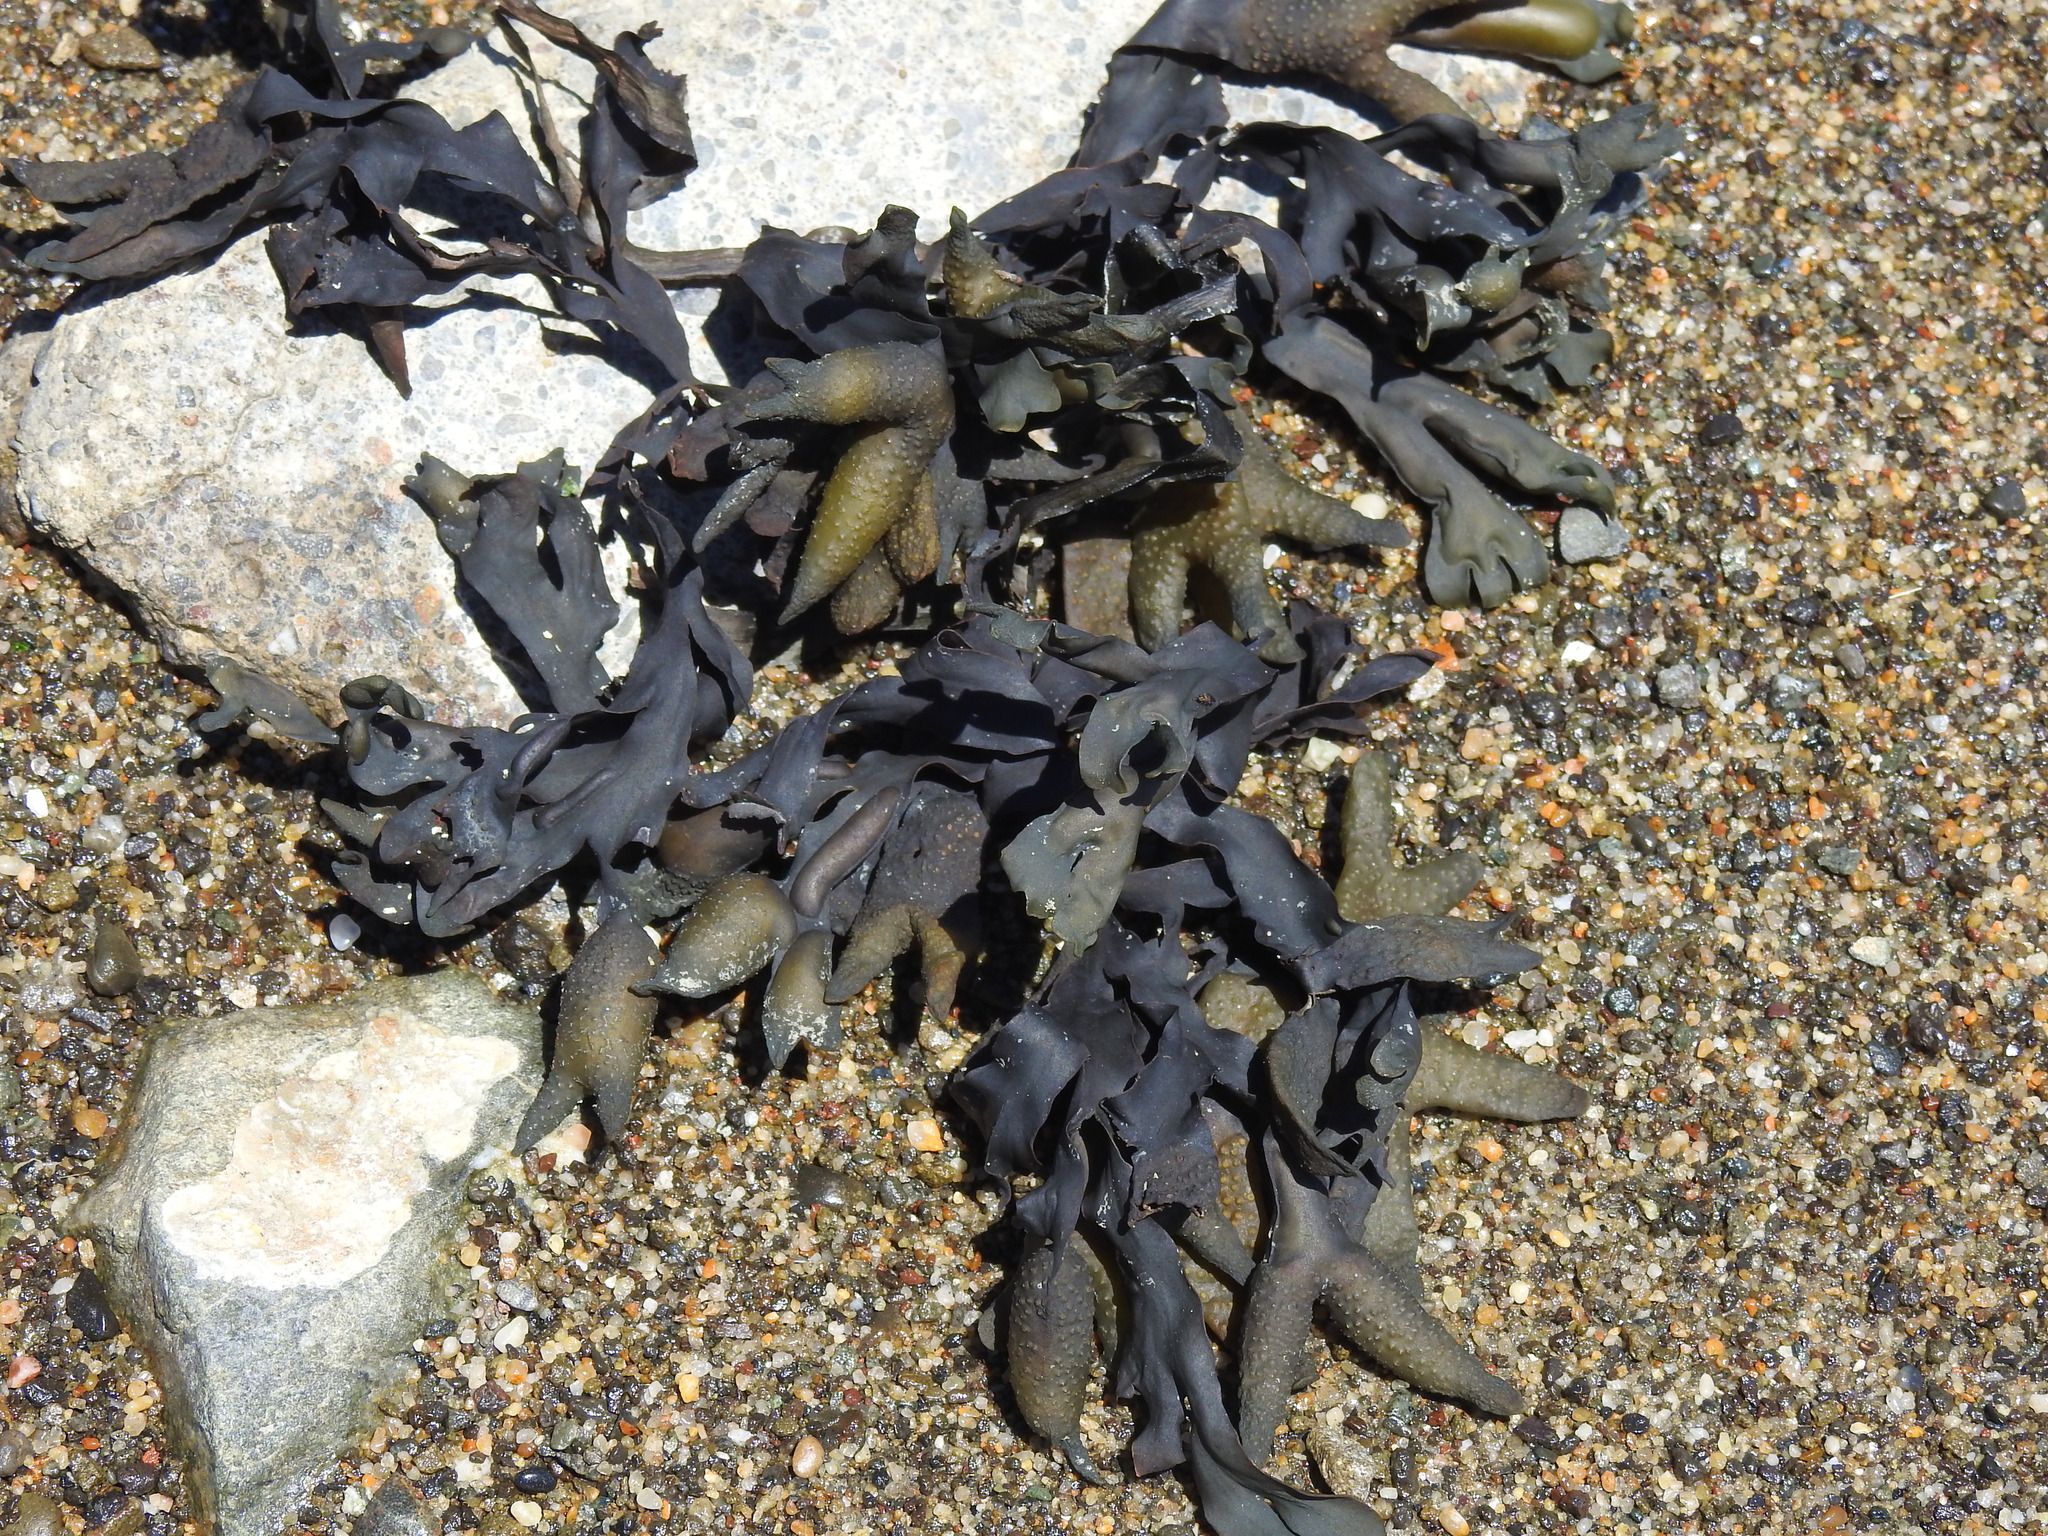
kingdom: Chromista
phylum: Ochrophyta
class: Phaeophyceae
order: Fucales
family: Fucaceae
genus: Fucus
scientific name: Fucus distichus
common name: Rockweed
